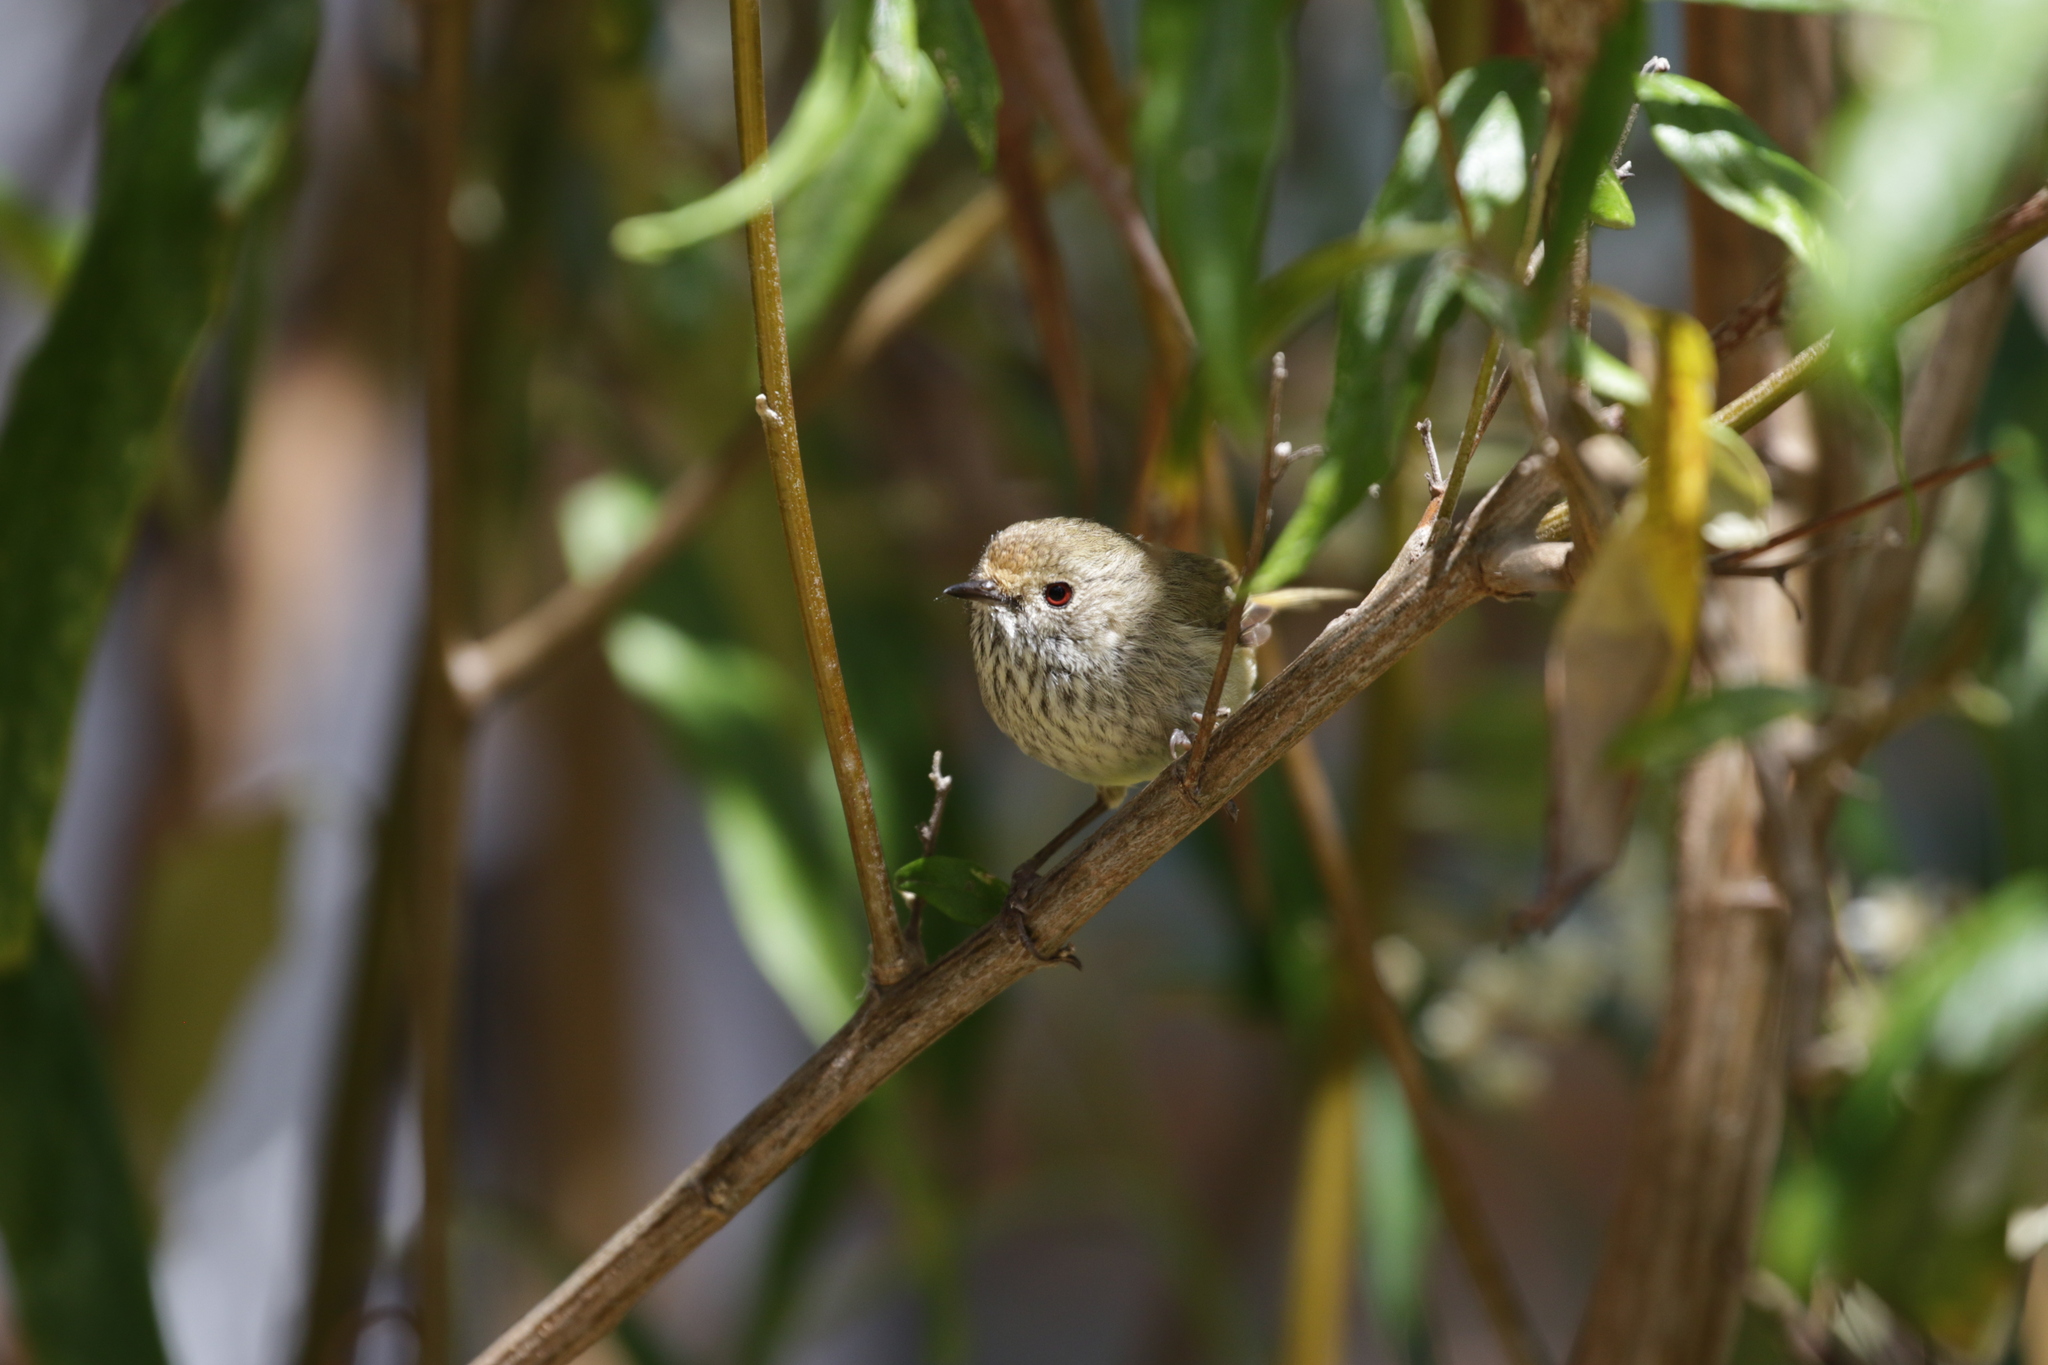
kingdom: Animalia
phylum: Chordata
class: Aves
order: Passeriformes
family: Acanthizidae
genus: Acanthiza
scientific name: Acanthiza pusilla
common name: Brown thornbill
